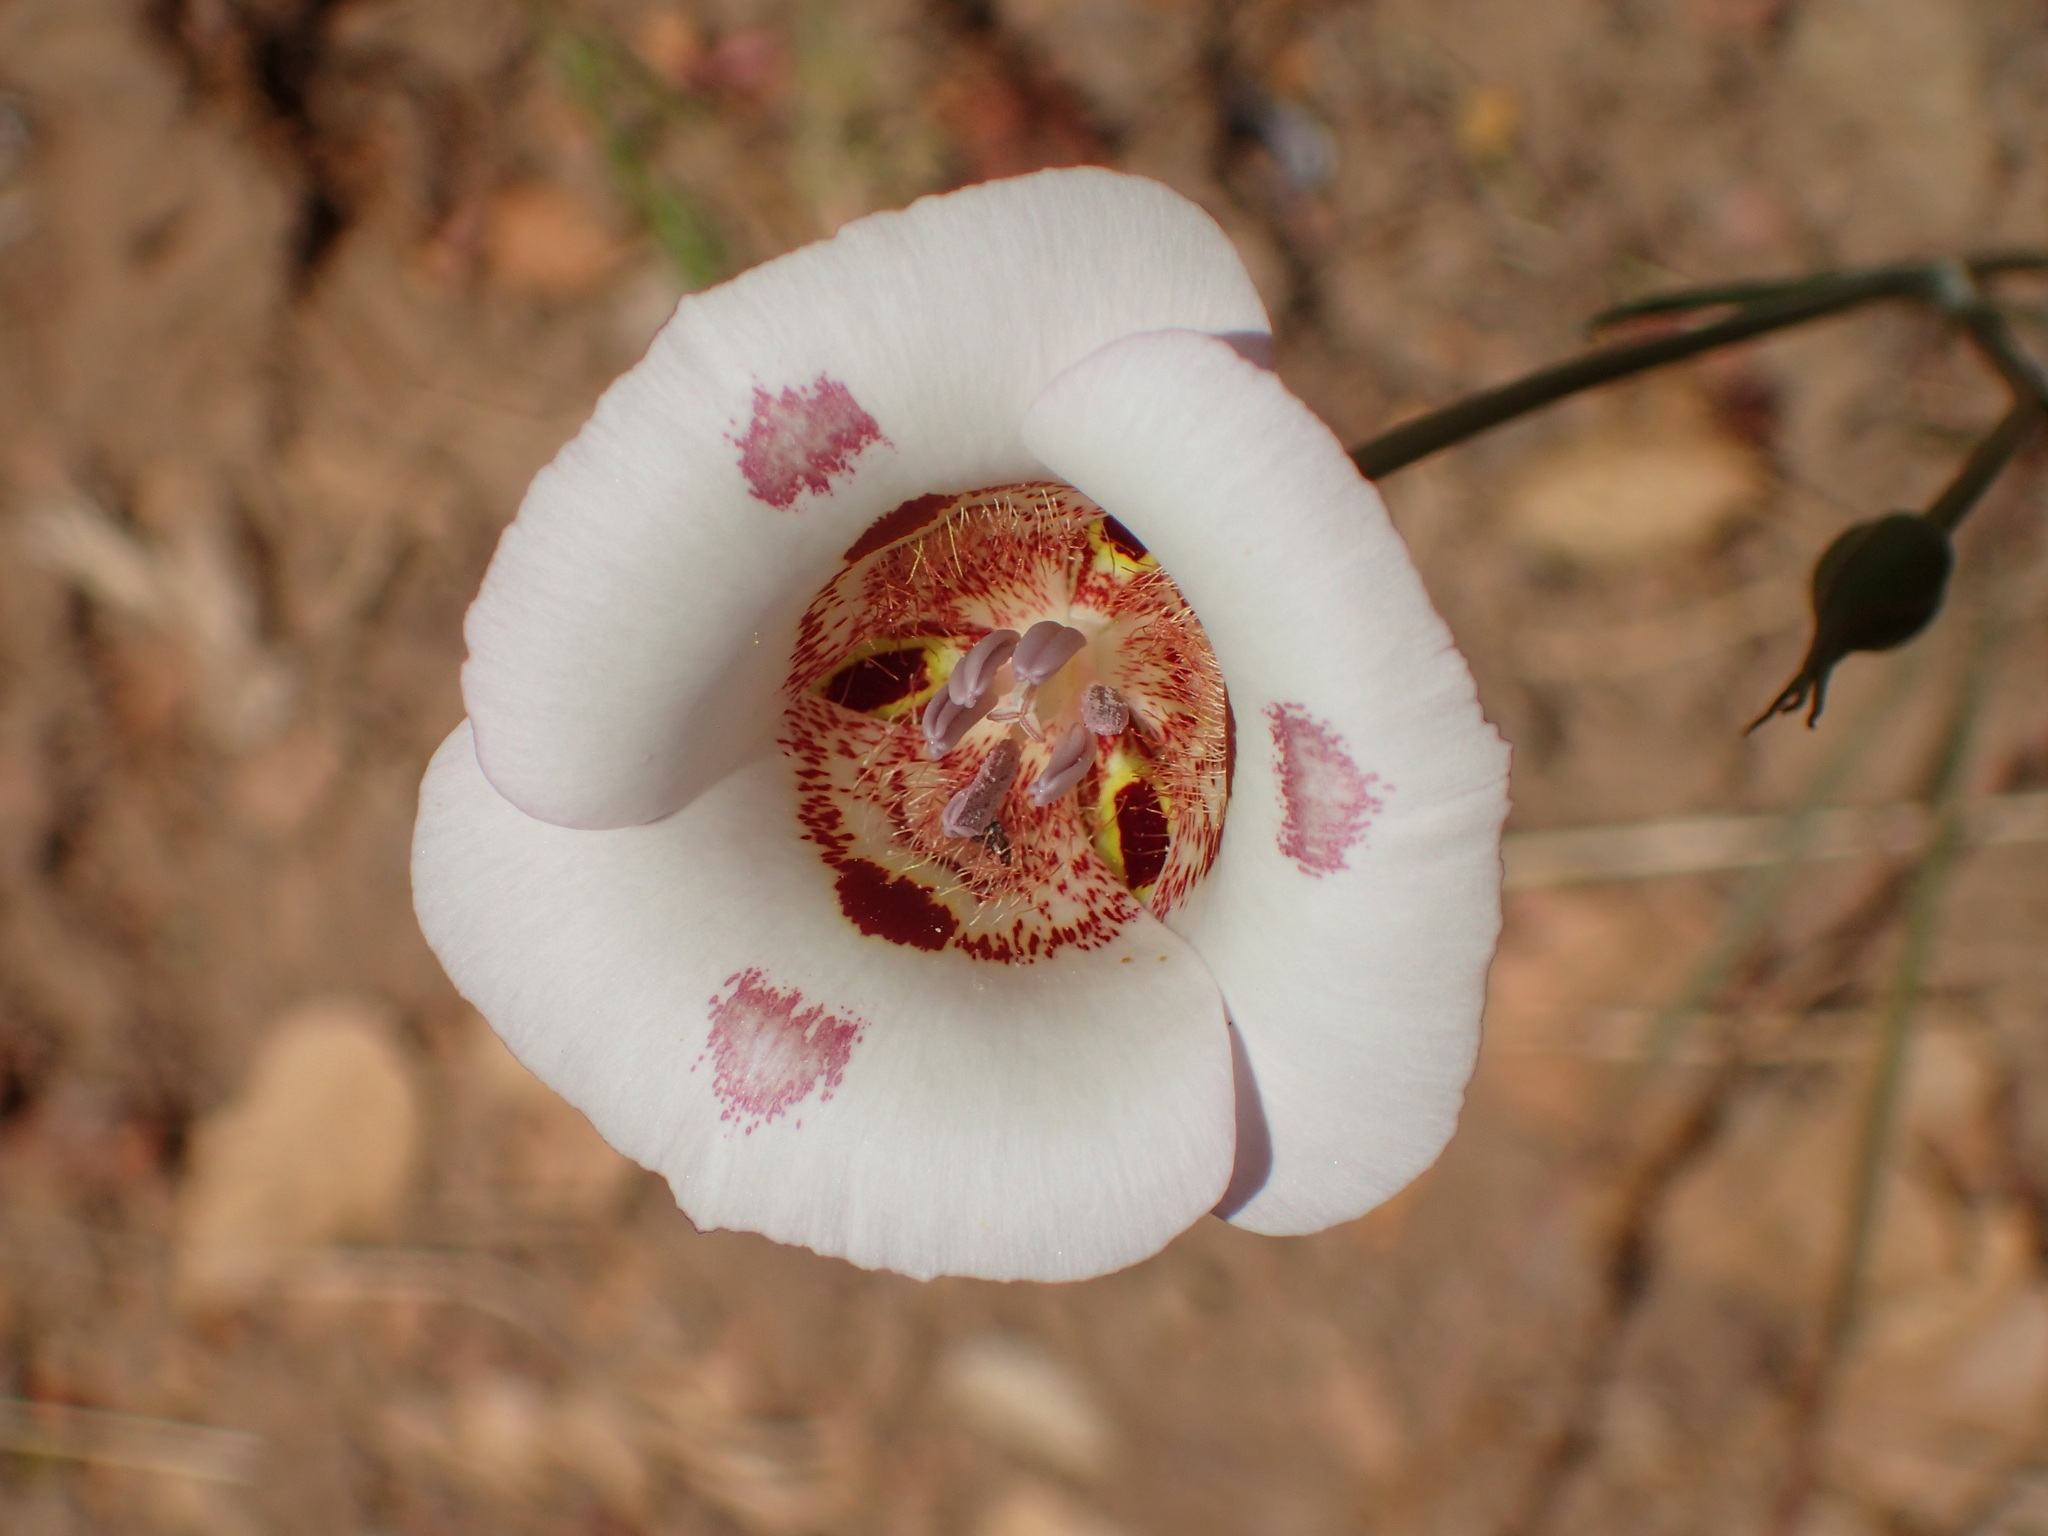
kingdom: Plantae
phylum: Tracheophyta
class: Liliopsida
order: Liliales
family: Liliaceae
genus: Calochortus
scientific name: Calochortus venustus
